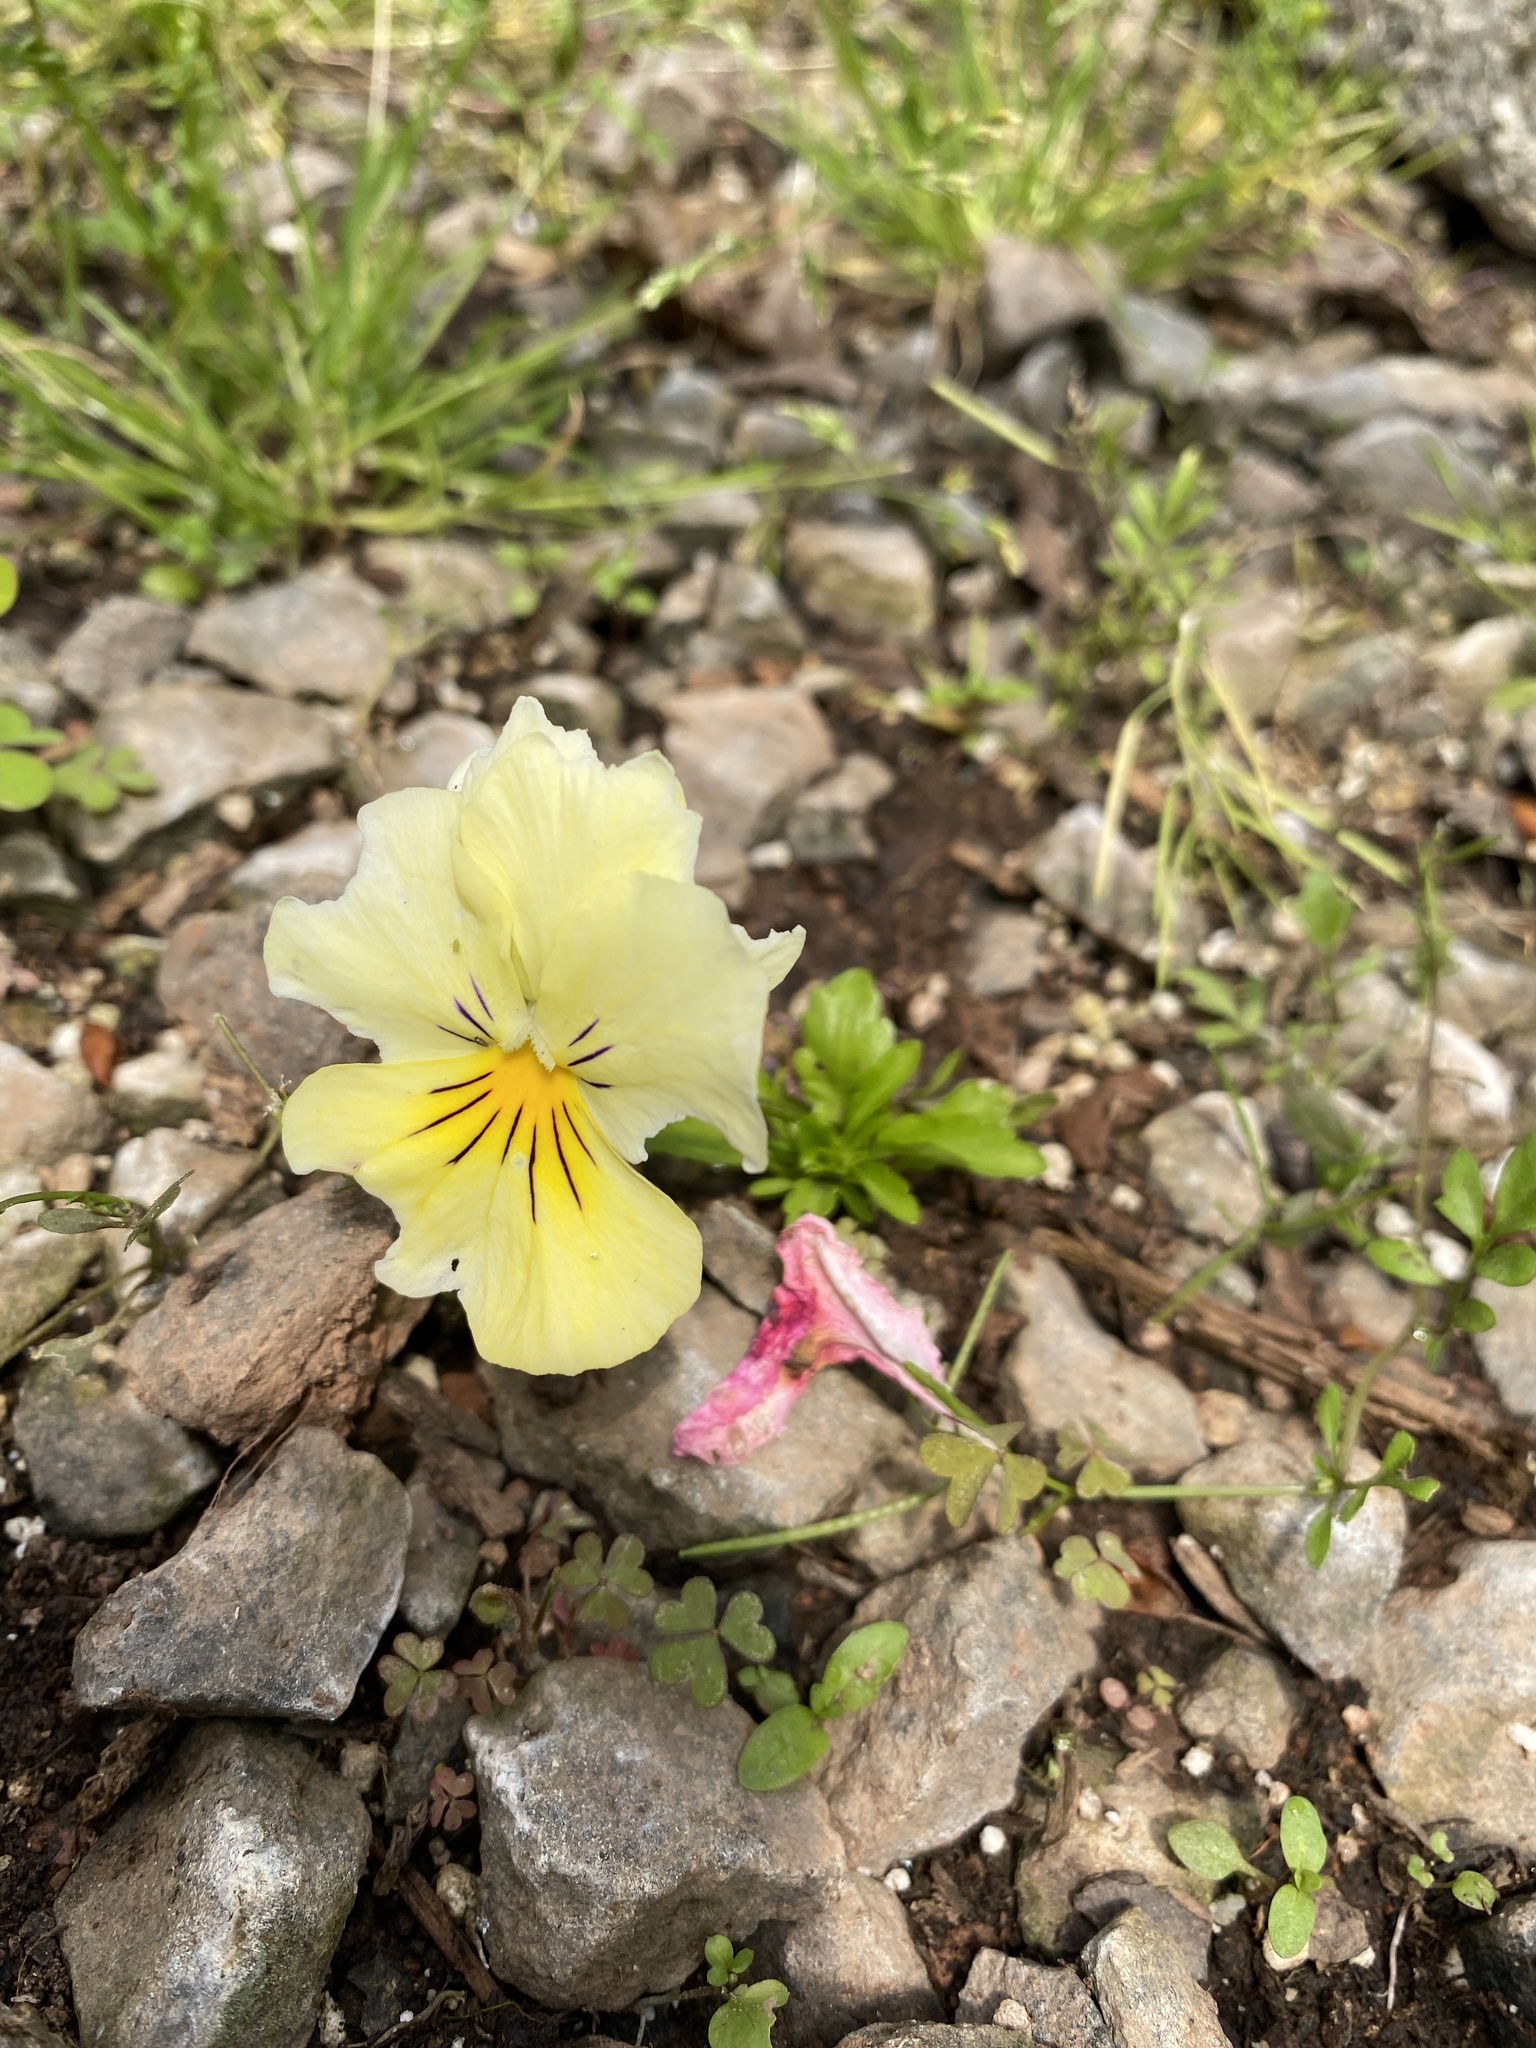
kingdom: Plantae
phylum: Tracheophyta
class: Magnoliopsida
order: Malpighiales
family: Violaceae
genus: Viola
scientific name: Viola wittrockiana
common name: Garden pansy
